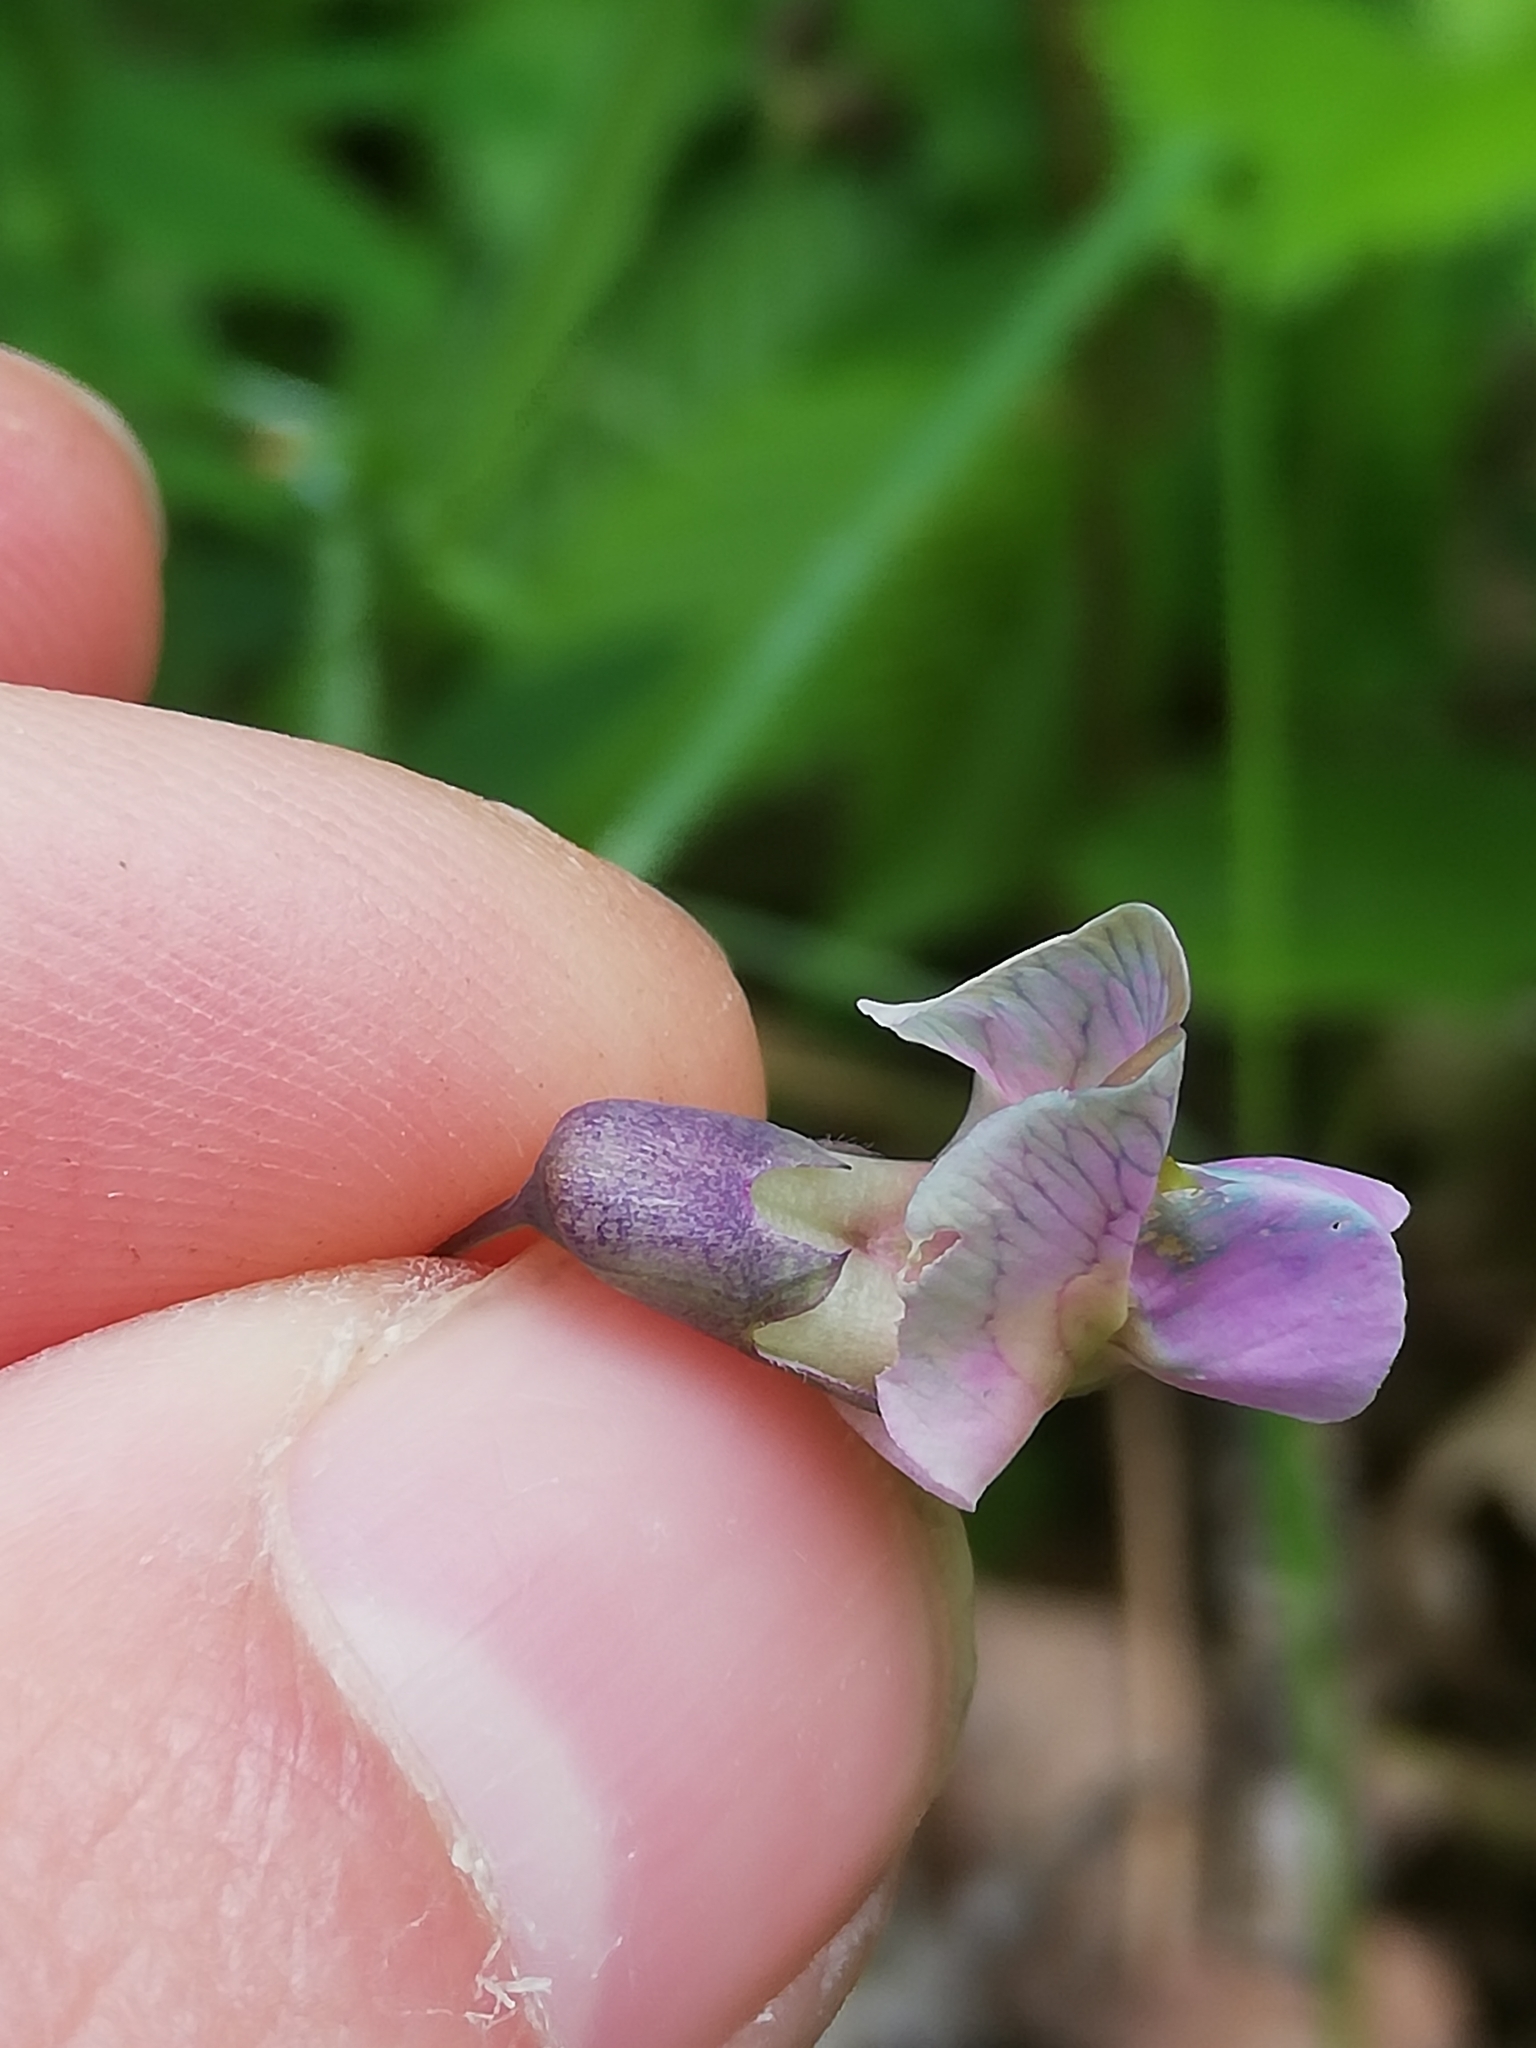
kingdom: Plantae
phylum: Tracheophyta
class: Magnoliopsida
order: Fabales
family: Fabaceae
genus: Lathyrus
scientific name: Lathyrus linifolius
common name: Bitter-vetch
